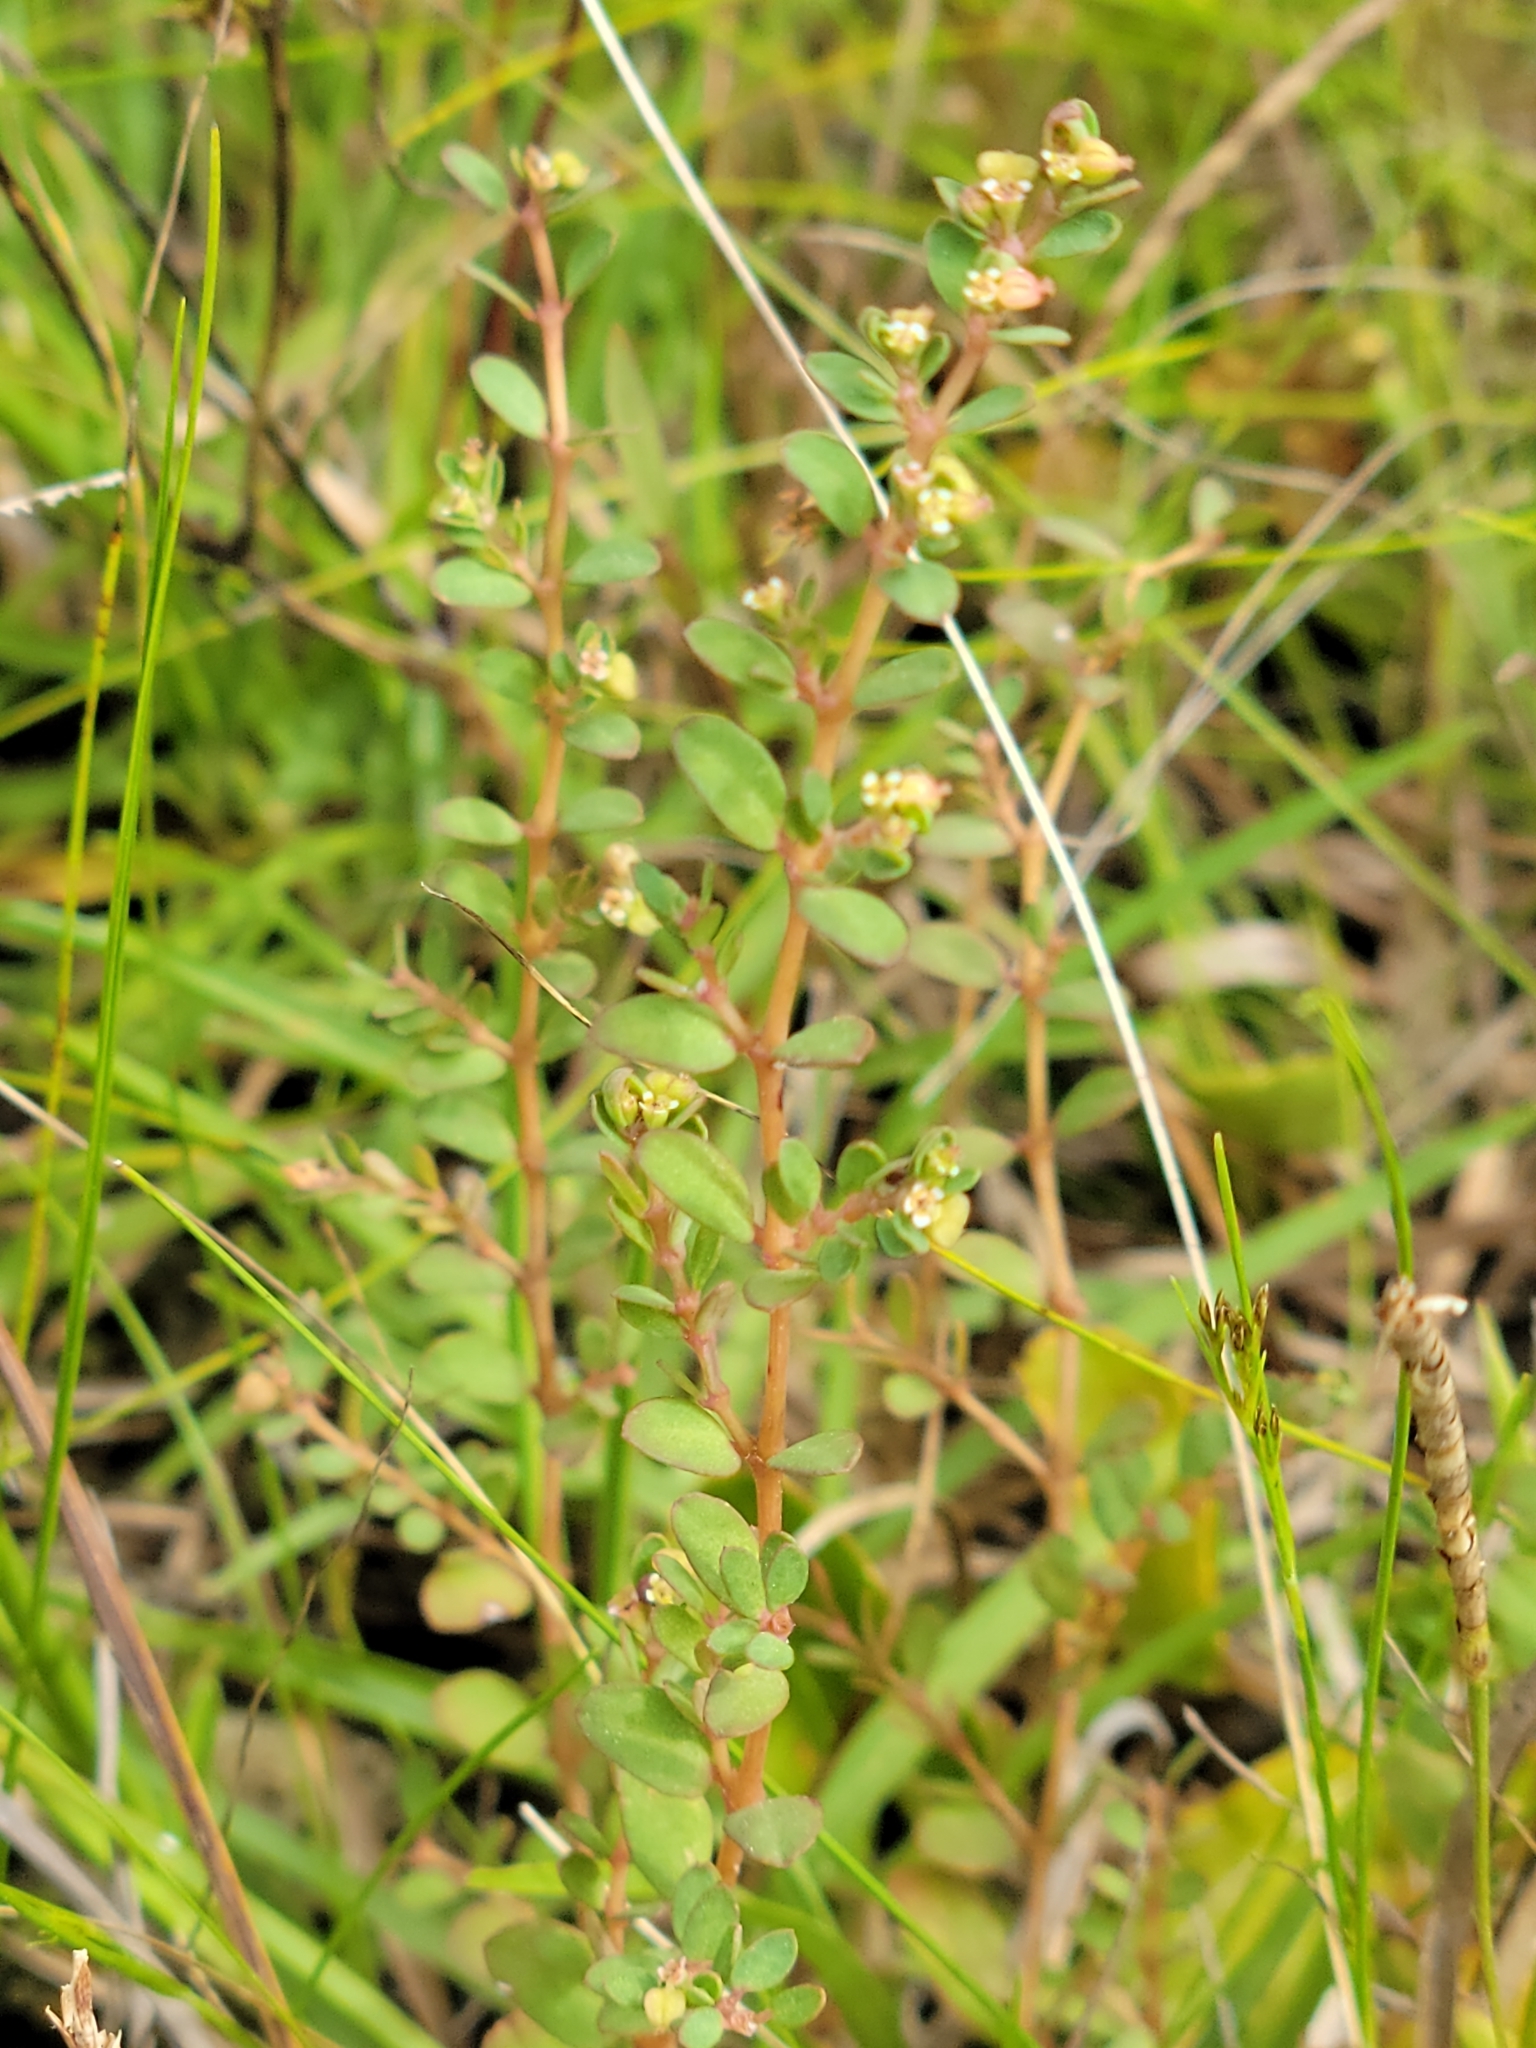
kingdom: Plantae
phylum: Tracheophyta
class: Magnoliopsida
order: Malpighiales
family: Euphorbiaceae
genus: Euphorbia
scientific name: Euphorbia blodgettii
